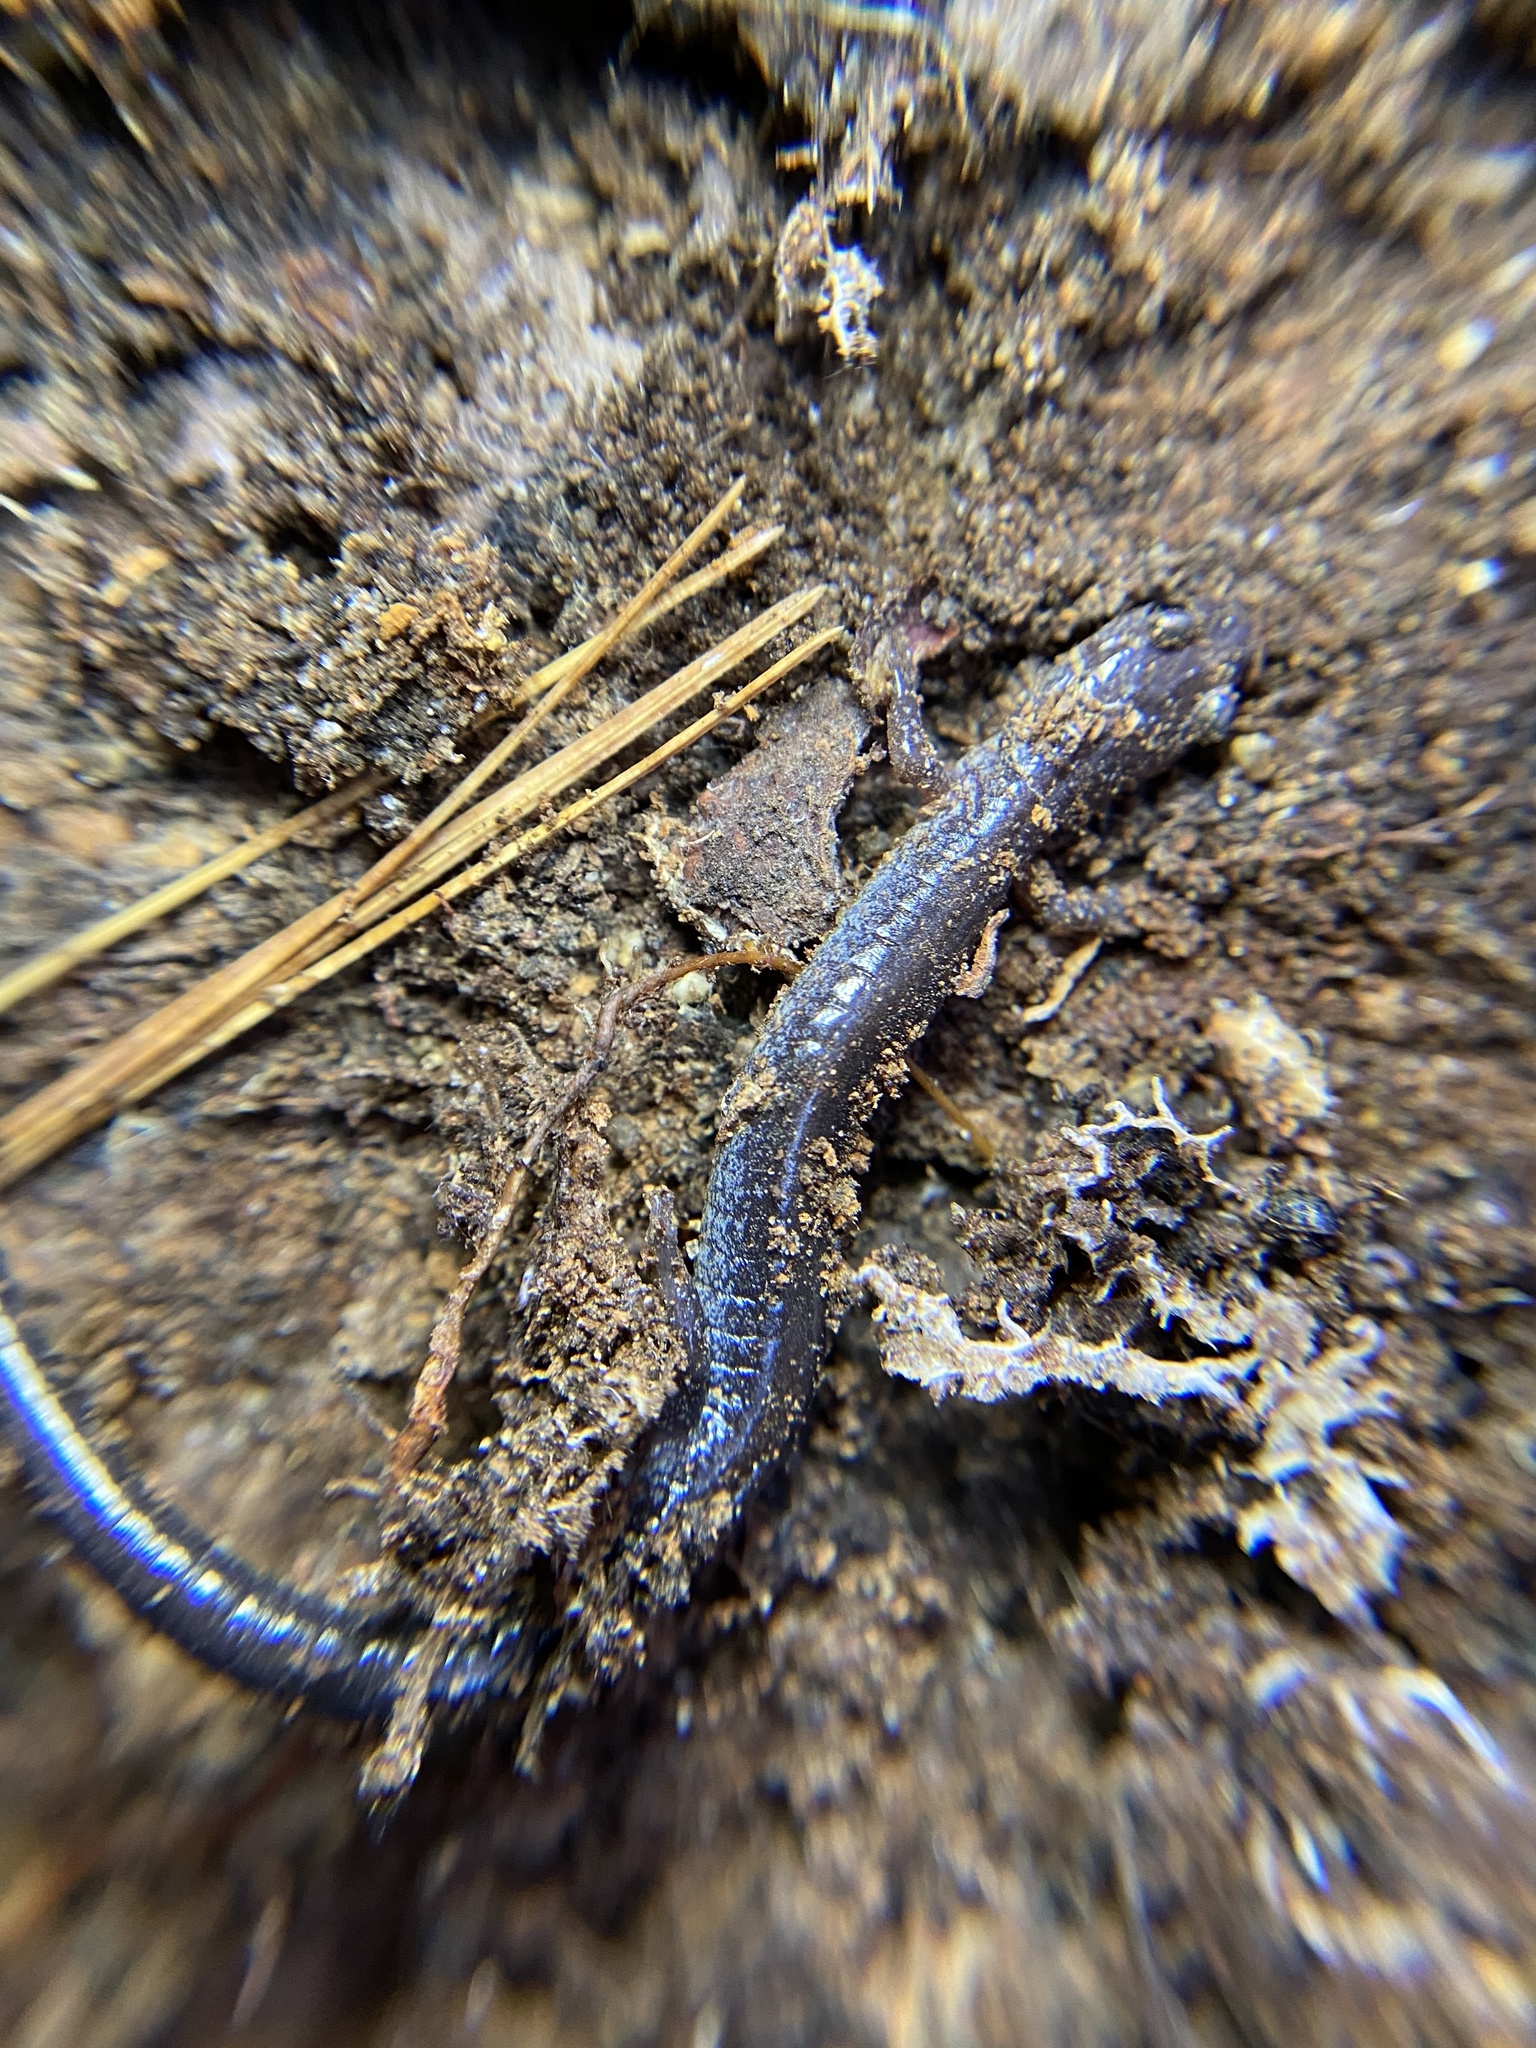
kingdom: Animalia
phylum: Chordata
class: Amphibia
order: Caudata
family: Plethodontidae
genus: Plethodon
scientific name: Plethodon cinereus
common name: Redback salamander
